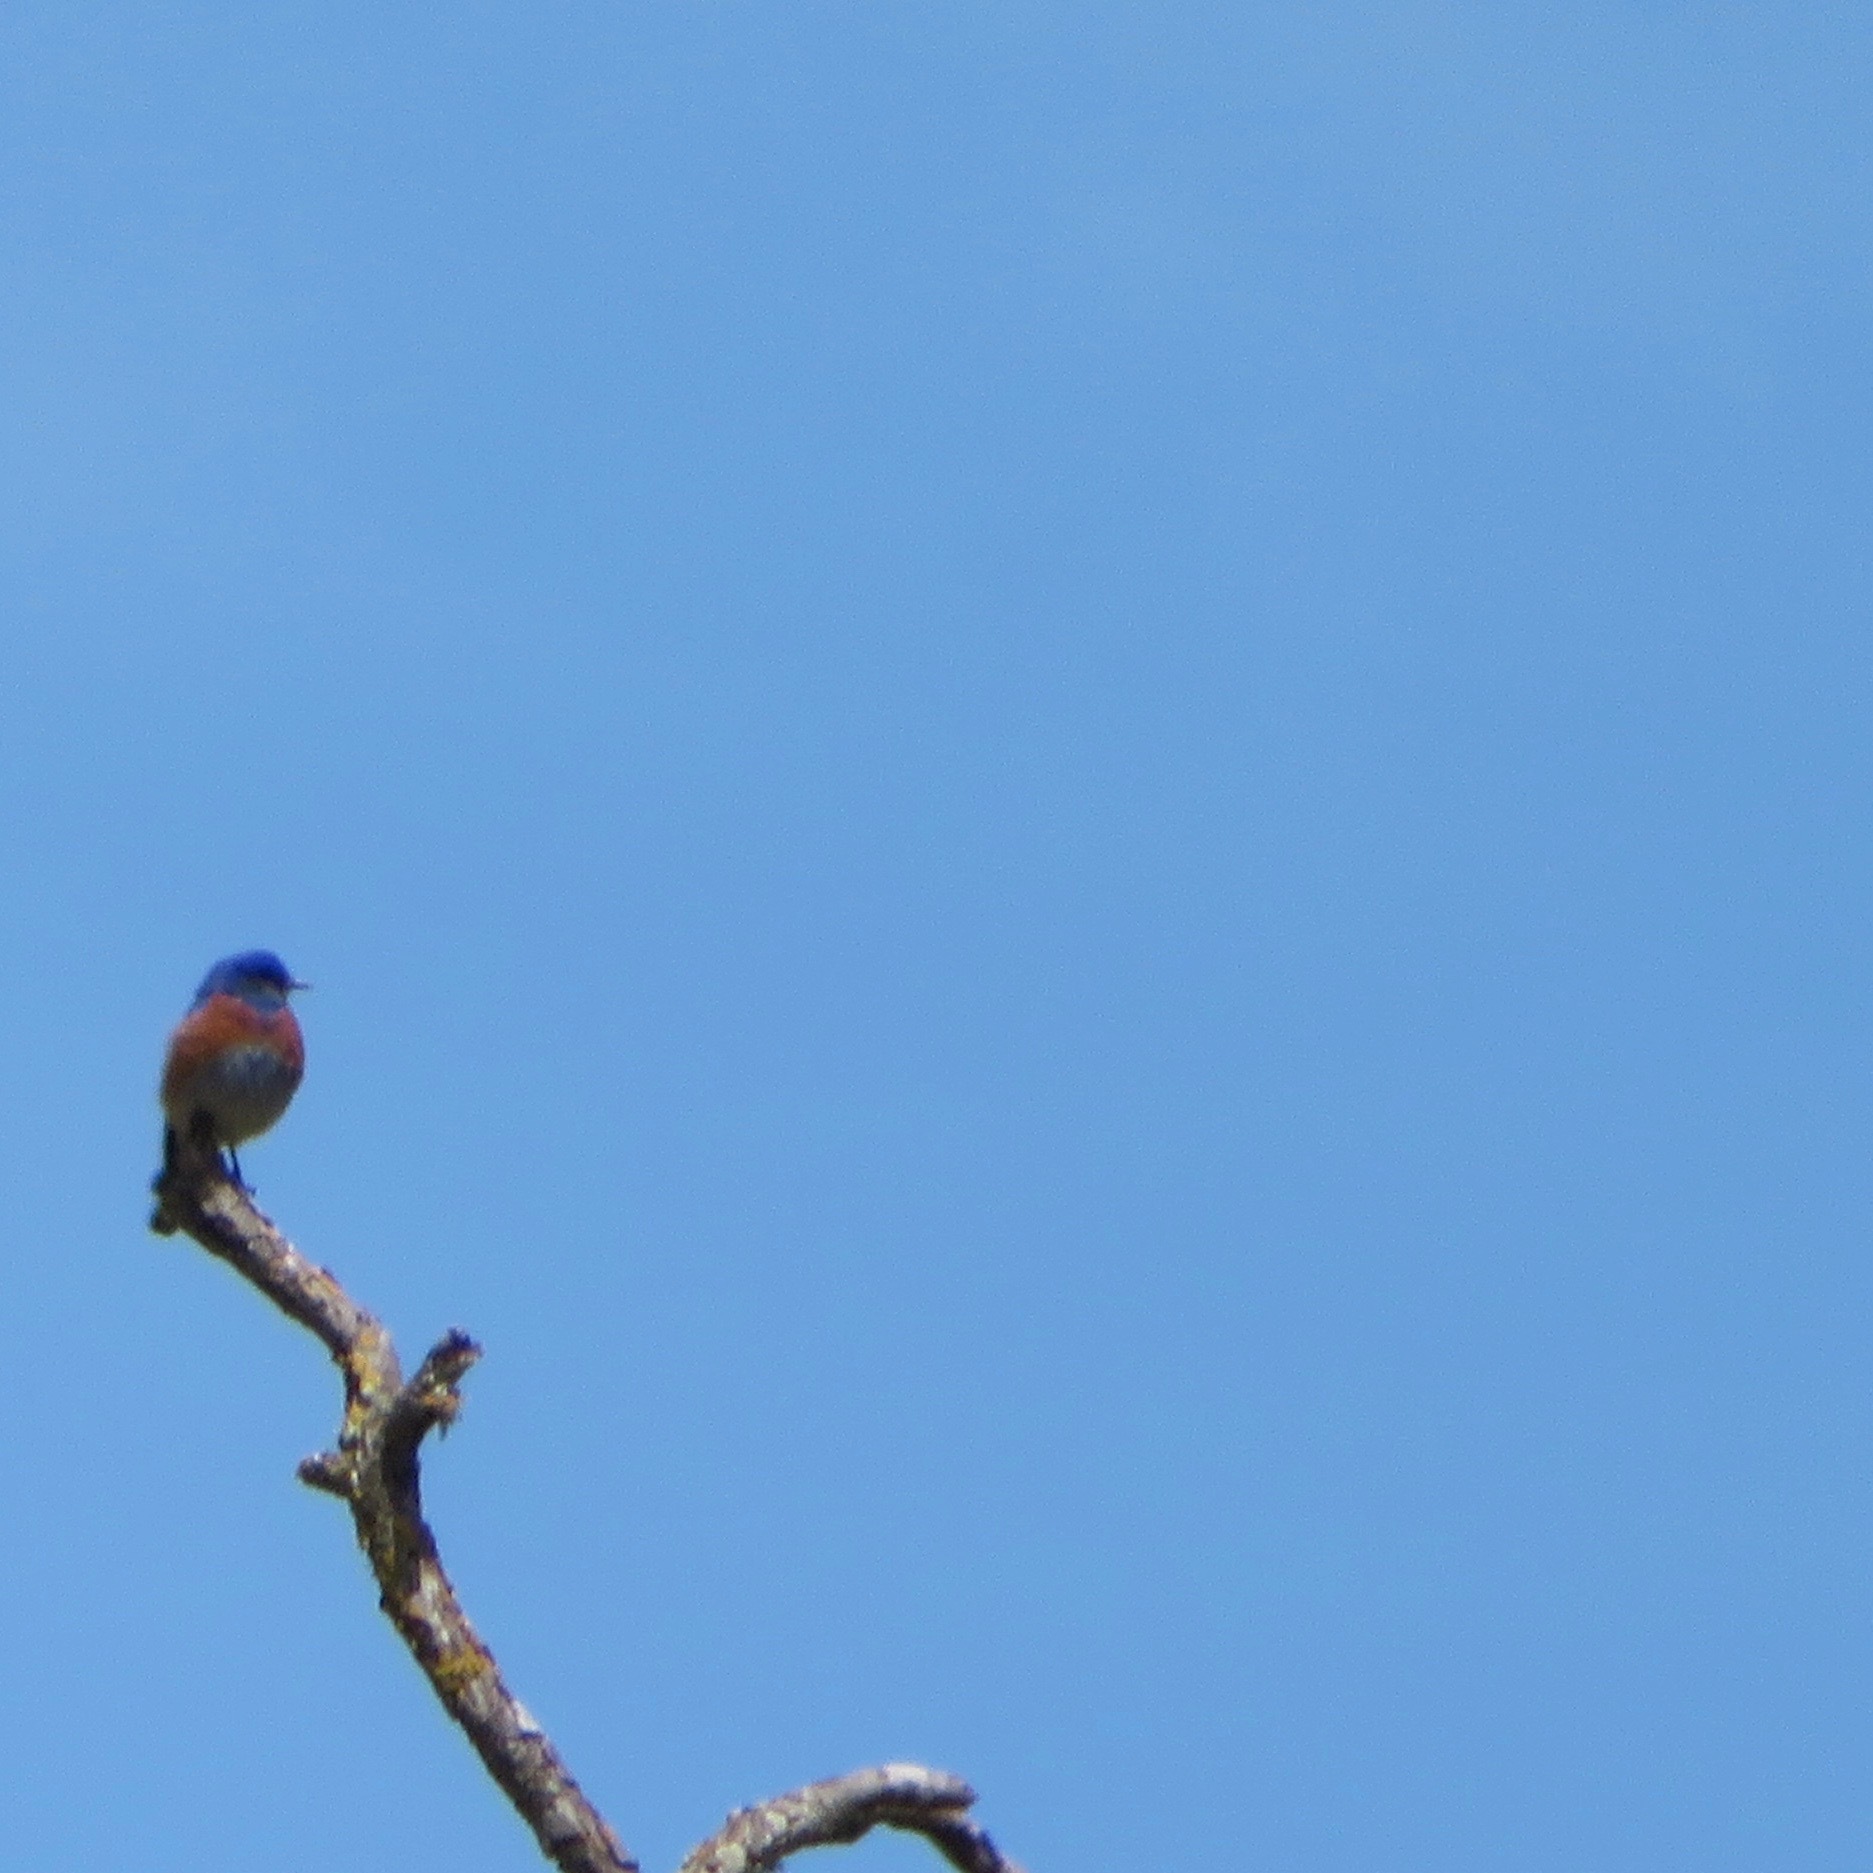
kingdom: Animalia
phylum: Chordata
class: Aves
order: Passeriformes
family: Turdidae
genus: Sialia
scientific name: Sialia mexicana
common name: Western bluebird
